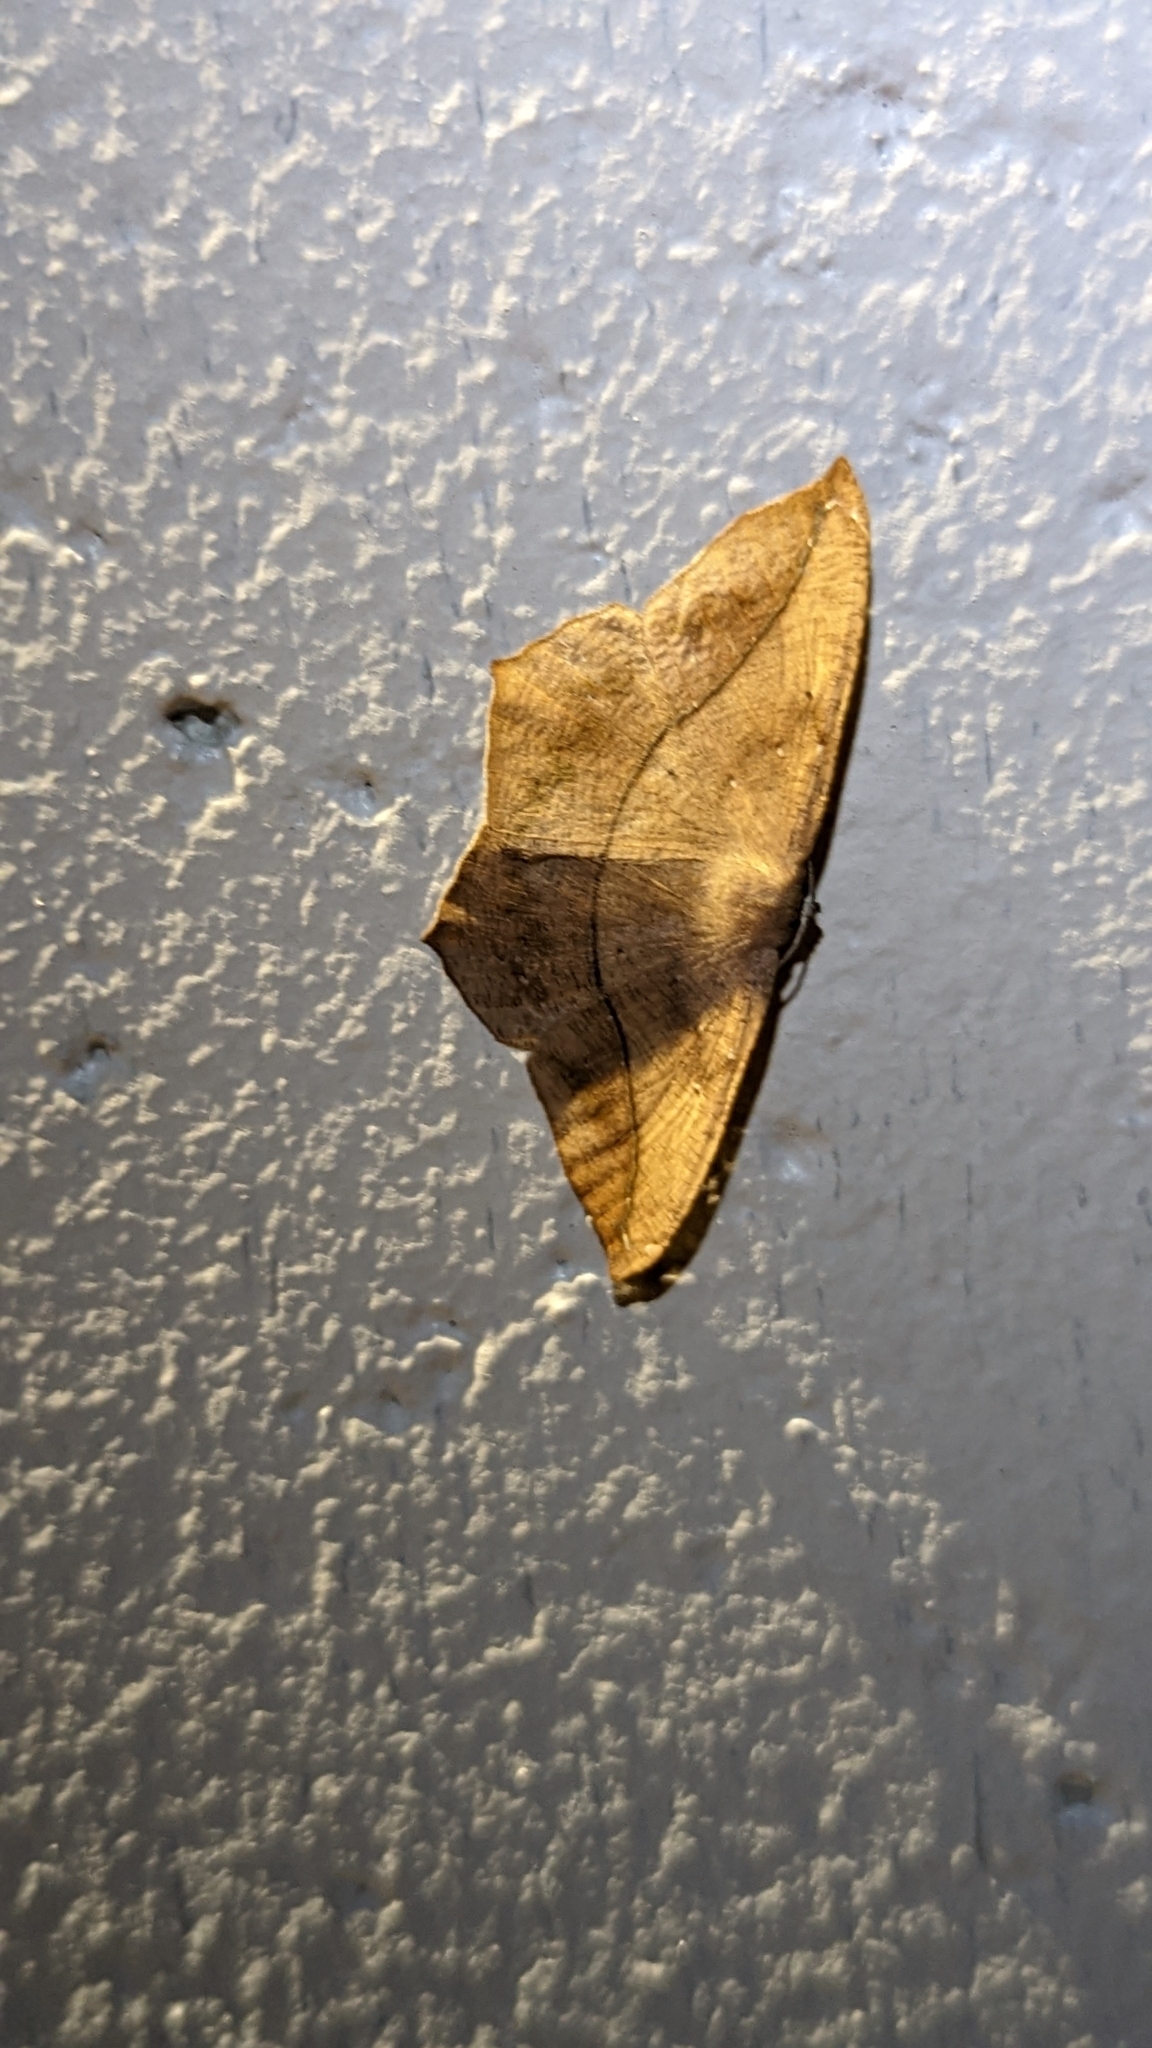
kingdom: Animalia
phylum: Arthropoda
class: Insecta
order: Lepidoptera
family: Geometridae
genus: Prochoerodes
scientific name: Prochoerodes lineola
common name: Large maple spanworm
